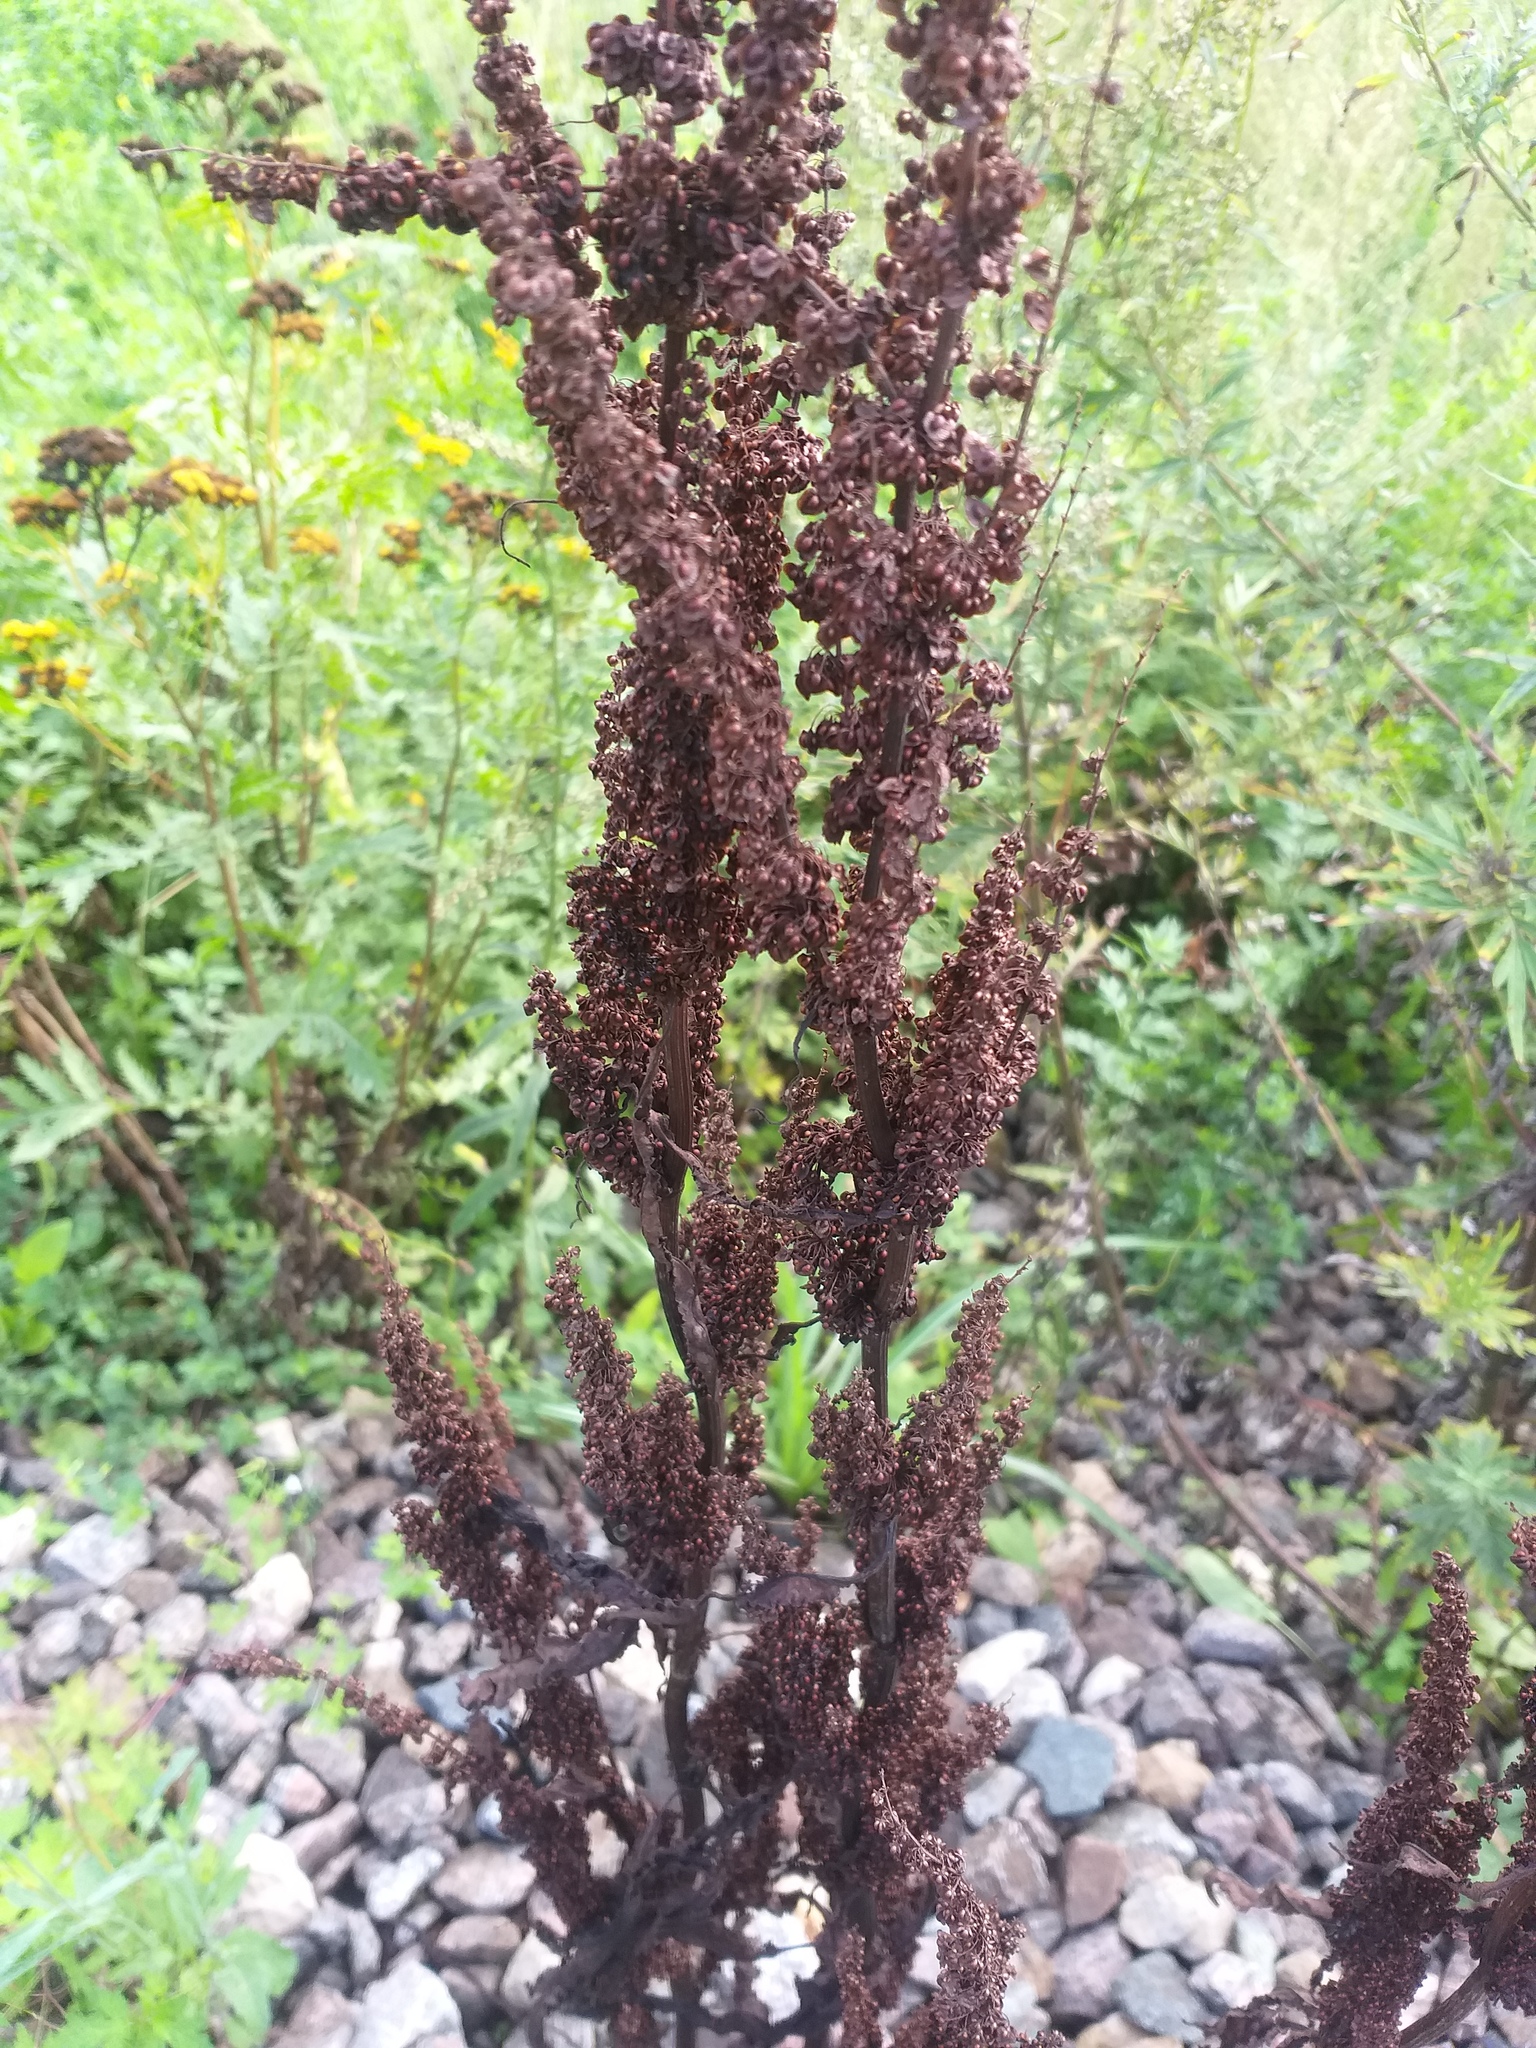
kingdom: Plantae
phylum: Tracheophyta
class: Magnoliopsida
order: Caryophyllales
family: Polygonaceae
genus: Rumex
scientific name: Rumex crispus
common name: Curled dock
